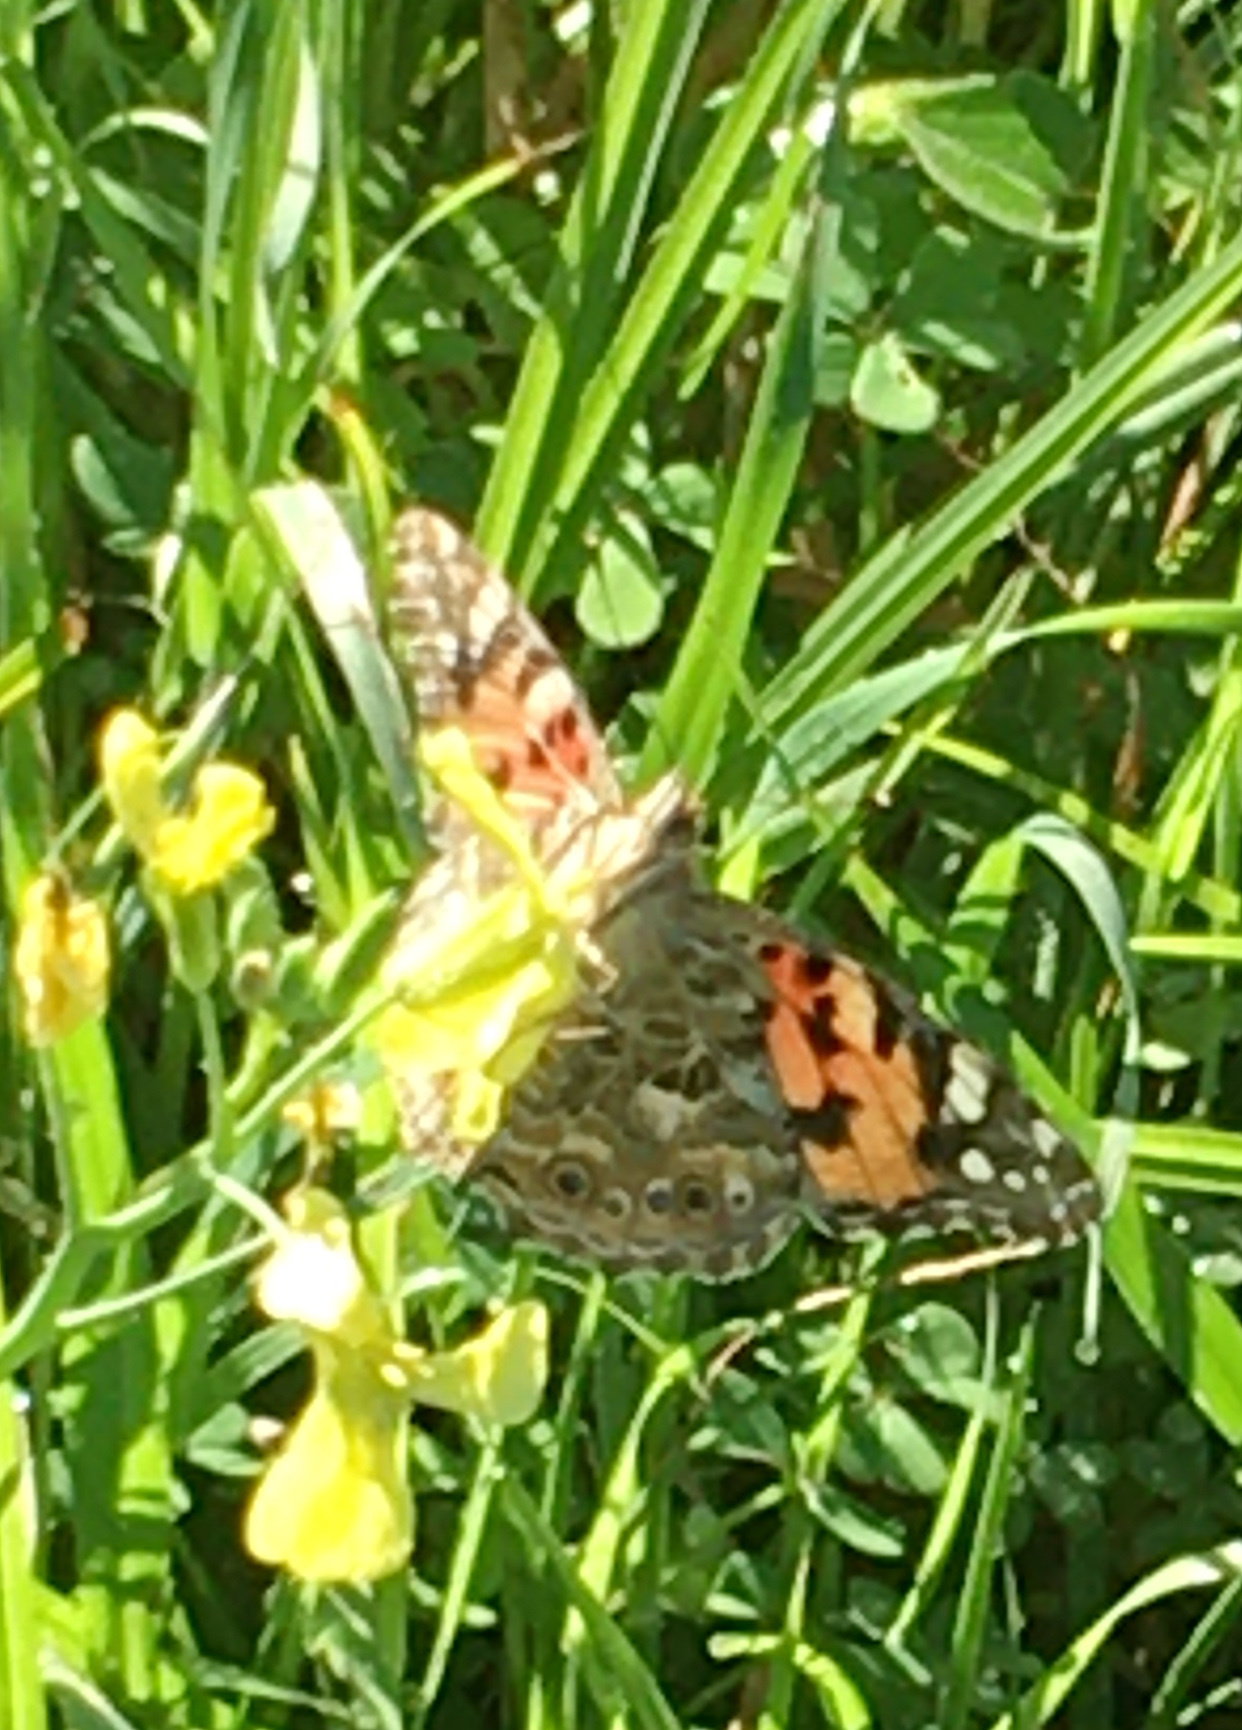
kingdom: Animalia
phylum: Arthropoda
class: Insecta
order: Lepidoptera
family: Nymphalidae
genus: Vanessa
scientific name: Vanessa cardui
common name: Painted lady
